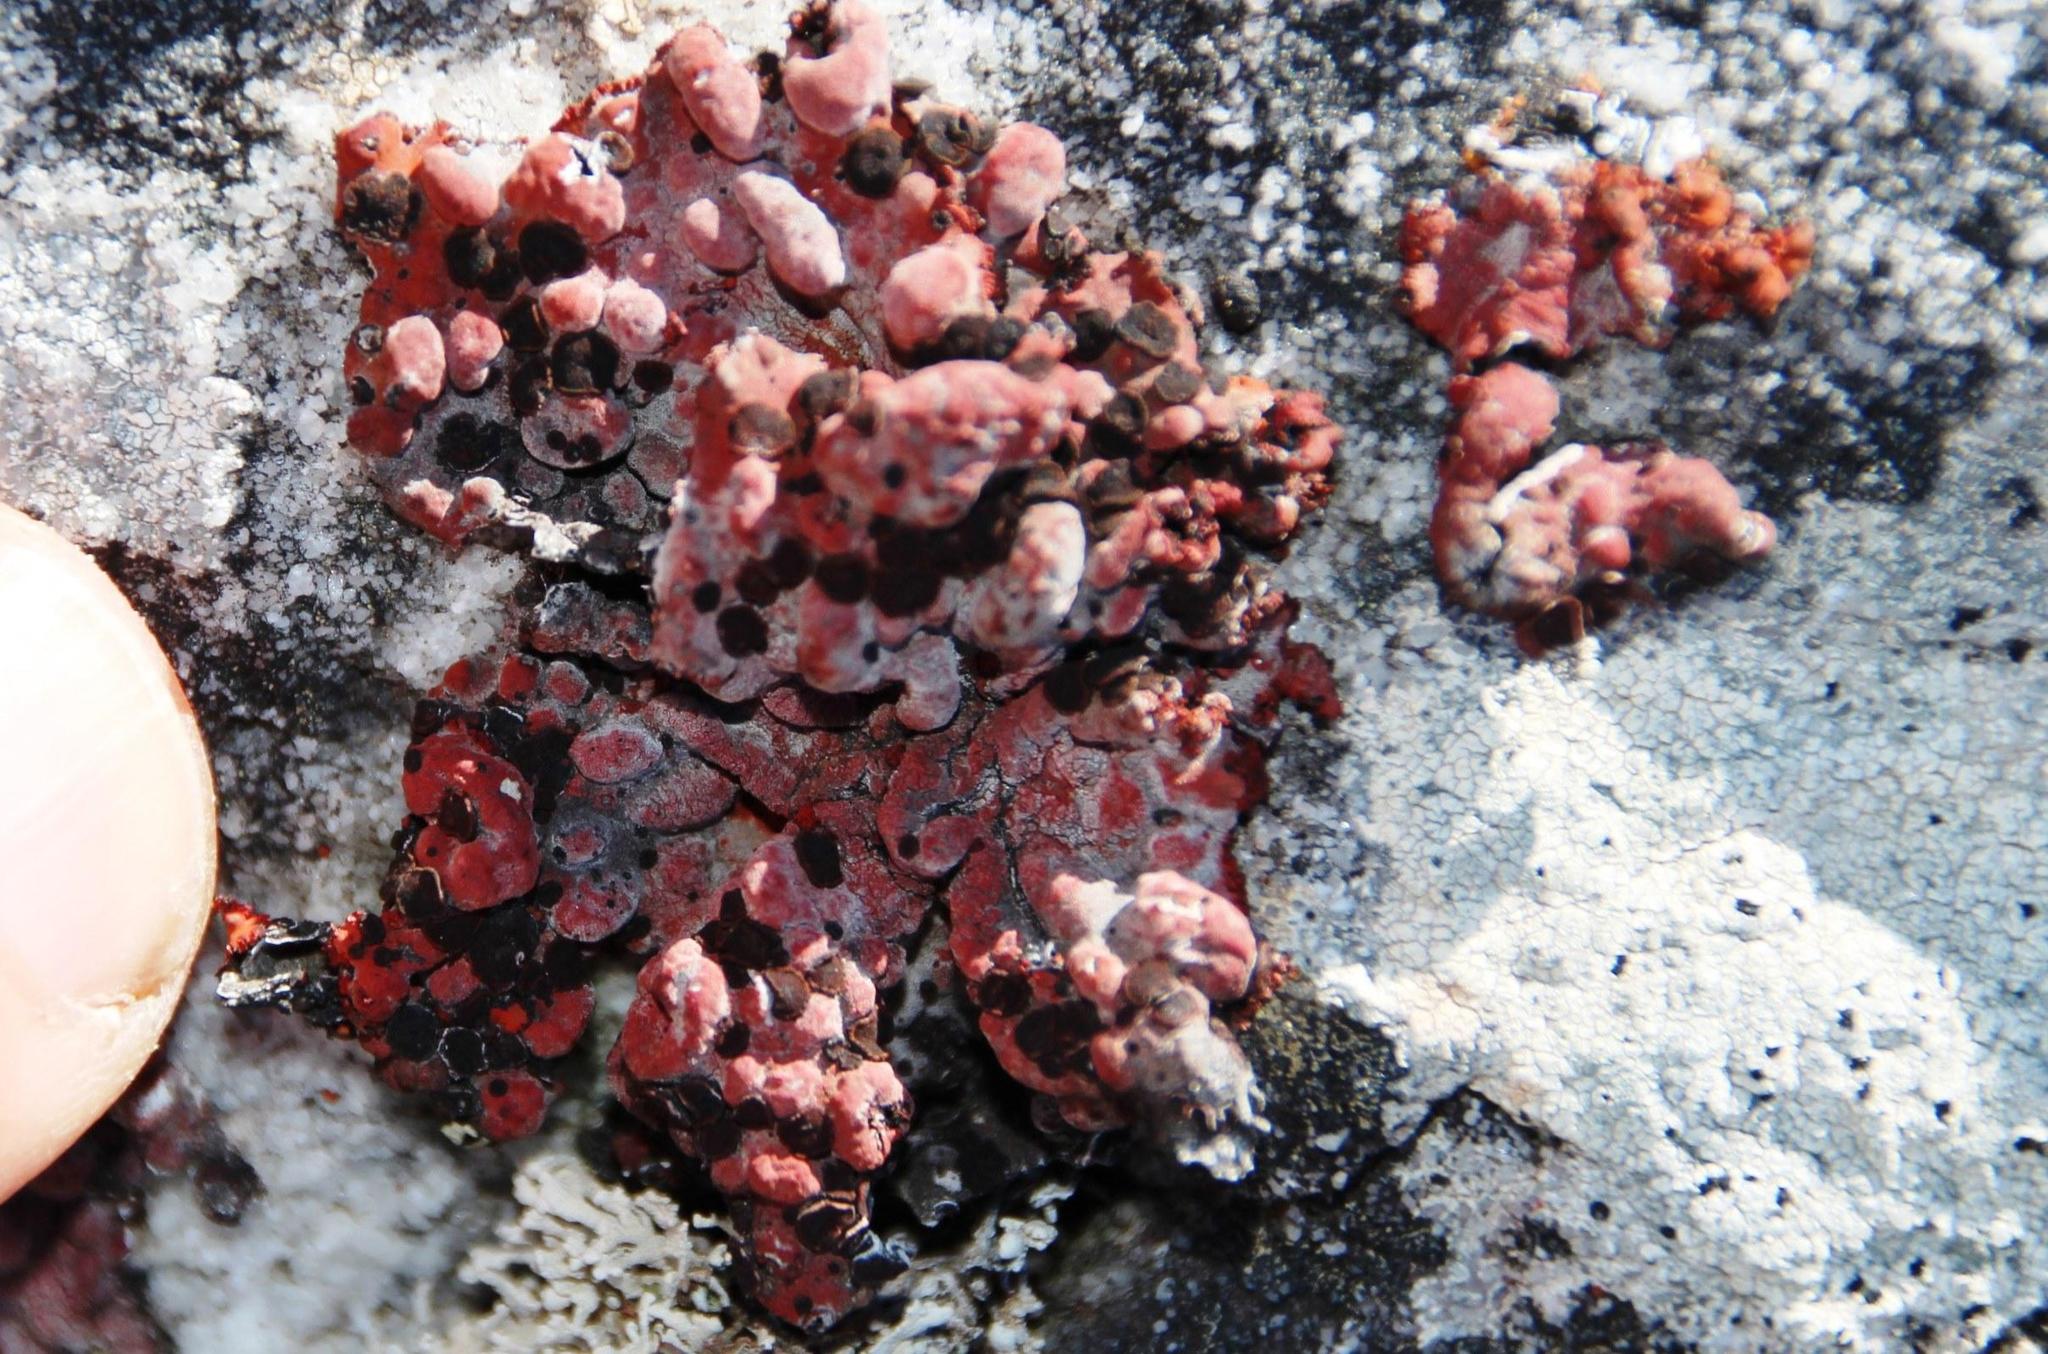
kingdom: Fungi
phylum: Ascomycota
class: Lecanoromycetes
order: Umbilicariales
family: Umbilicariaceae
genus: Lasallia
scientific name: Lasallia rubiginosa
